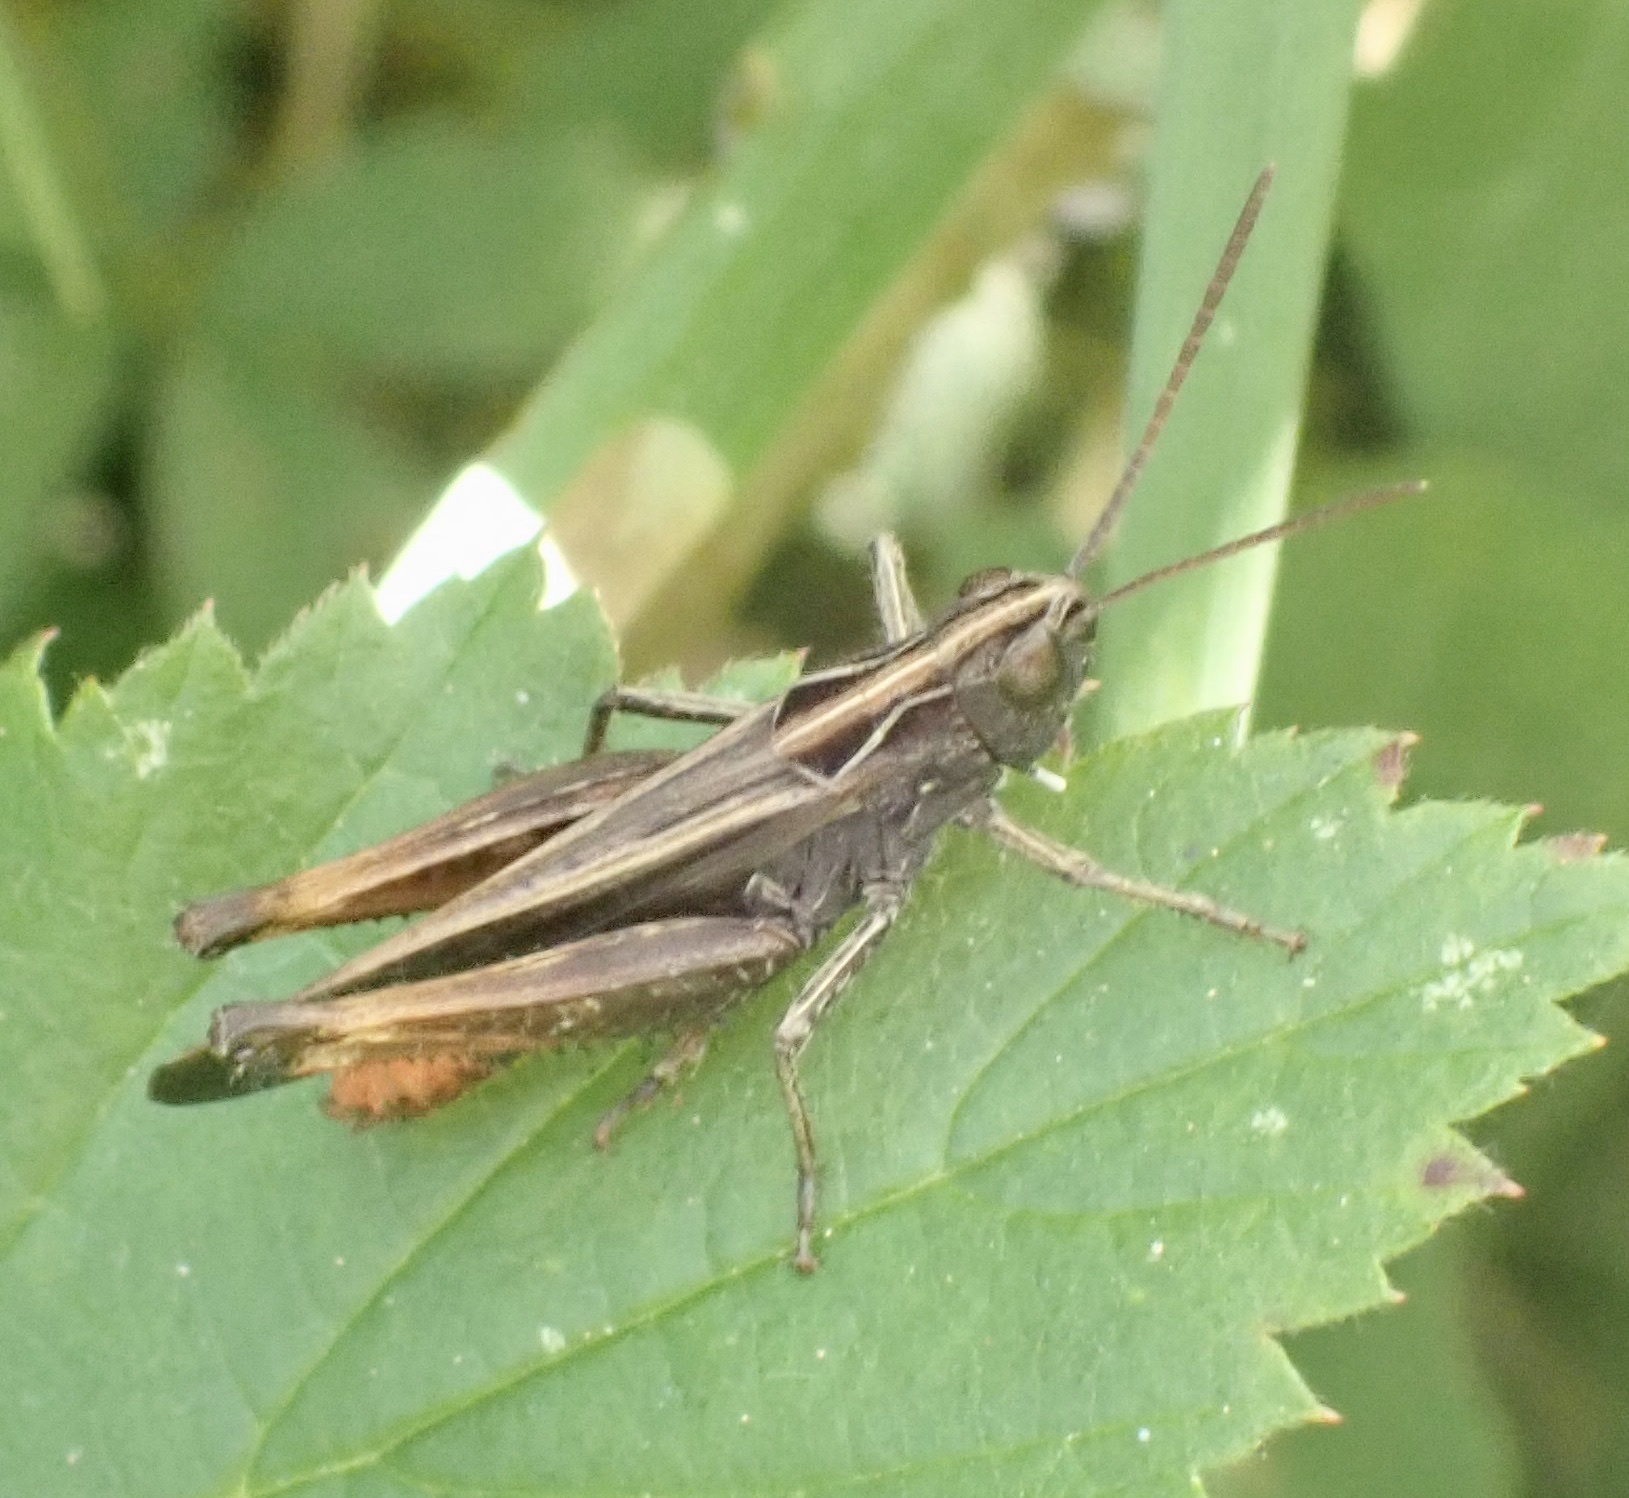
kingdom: Animalia
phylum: Arthropoda
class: Insecta
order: Orthoptera
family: Acrididae
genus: Omocestus
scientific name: Omocestus rufipes
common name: Woodland grasshopper
